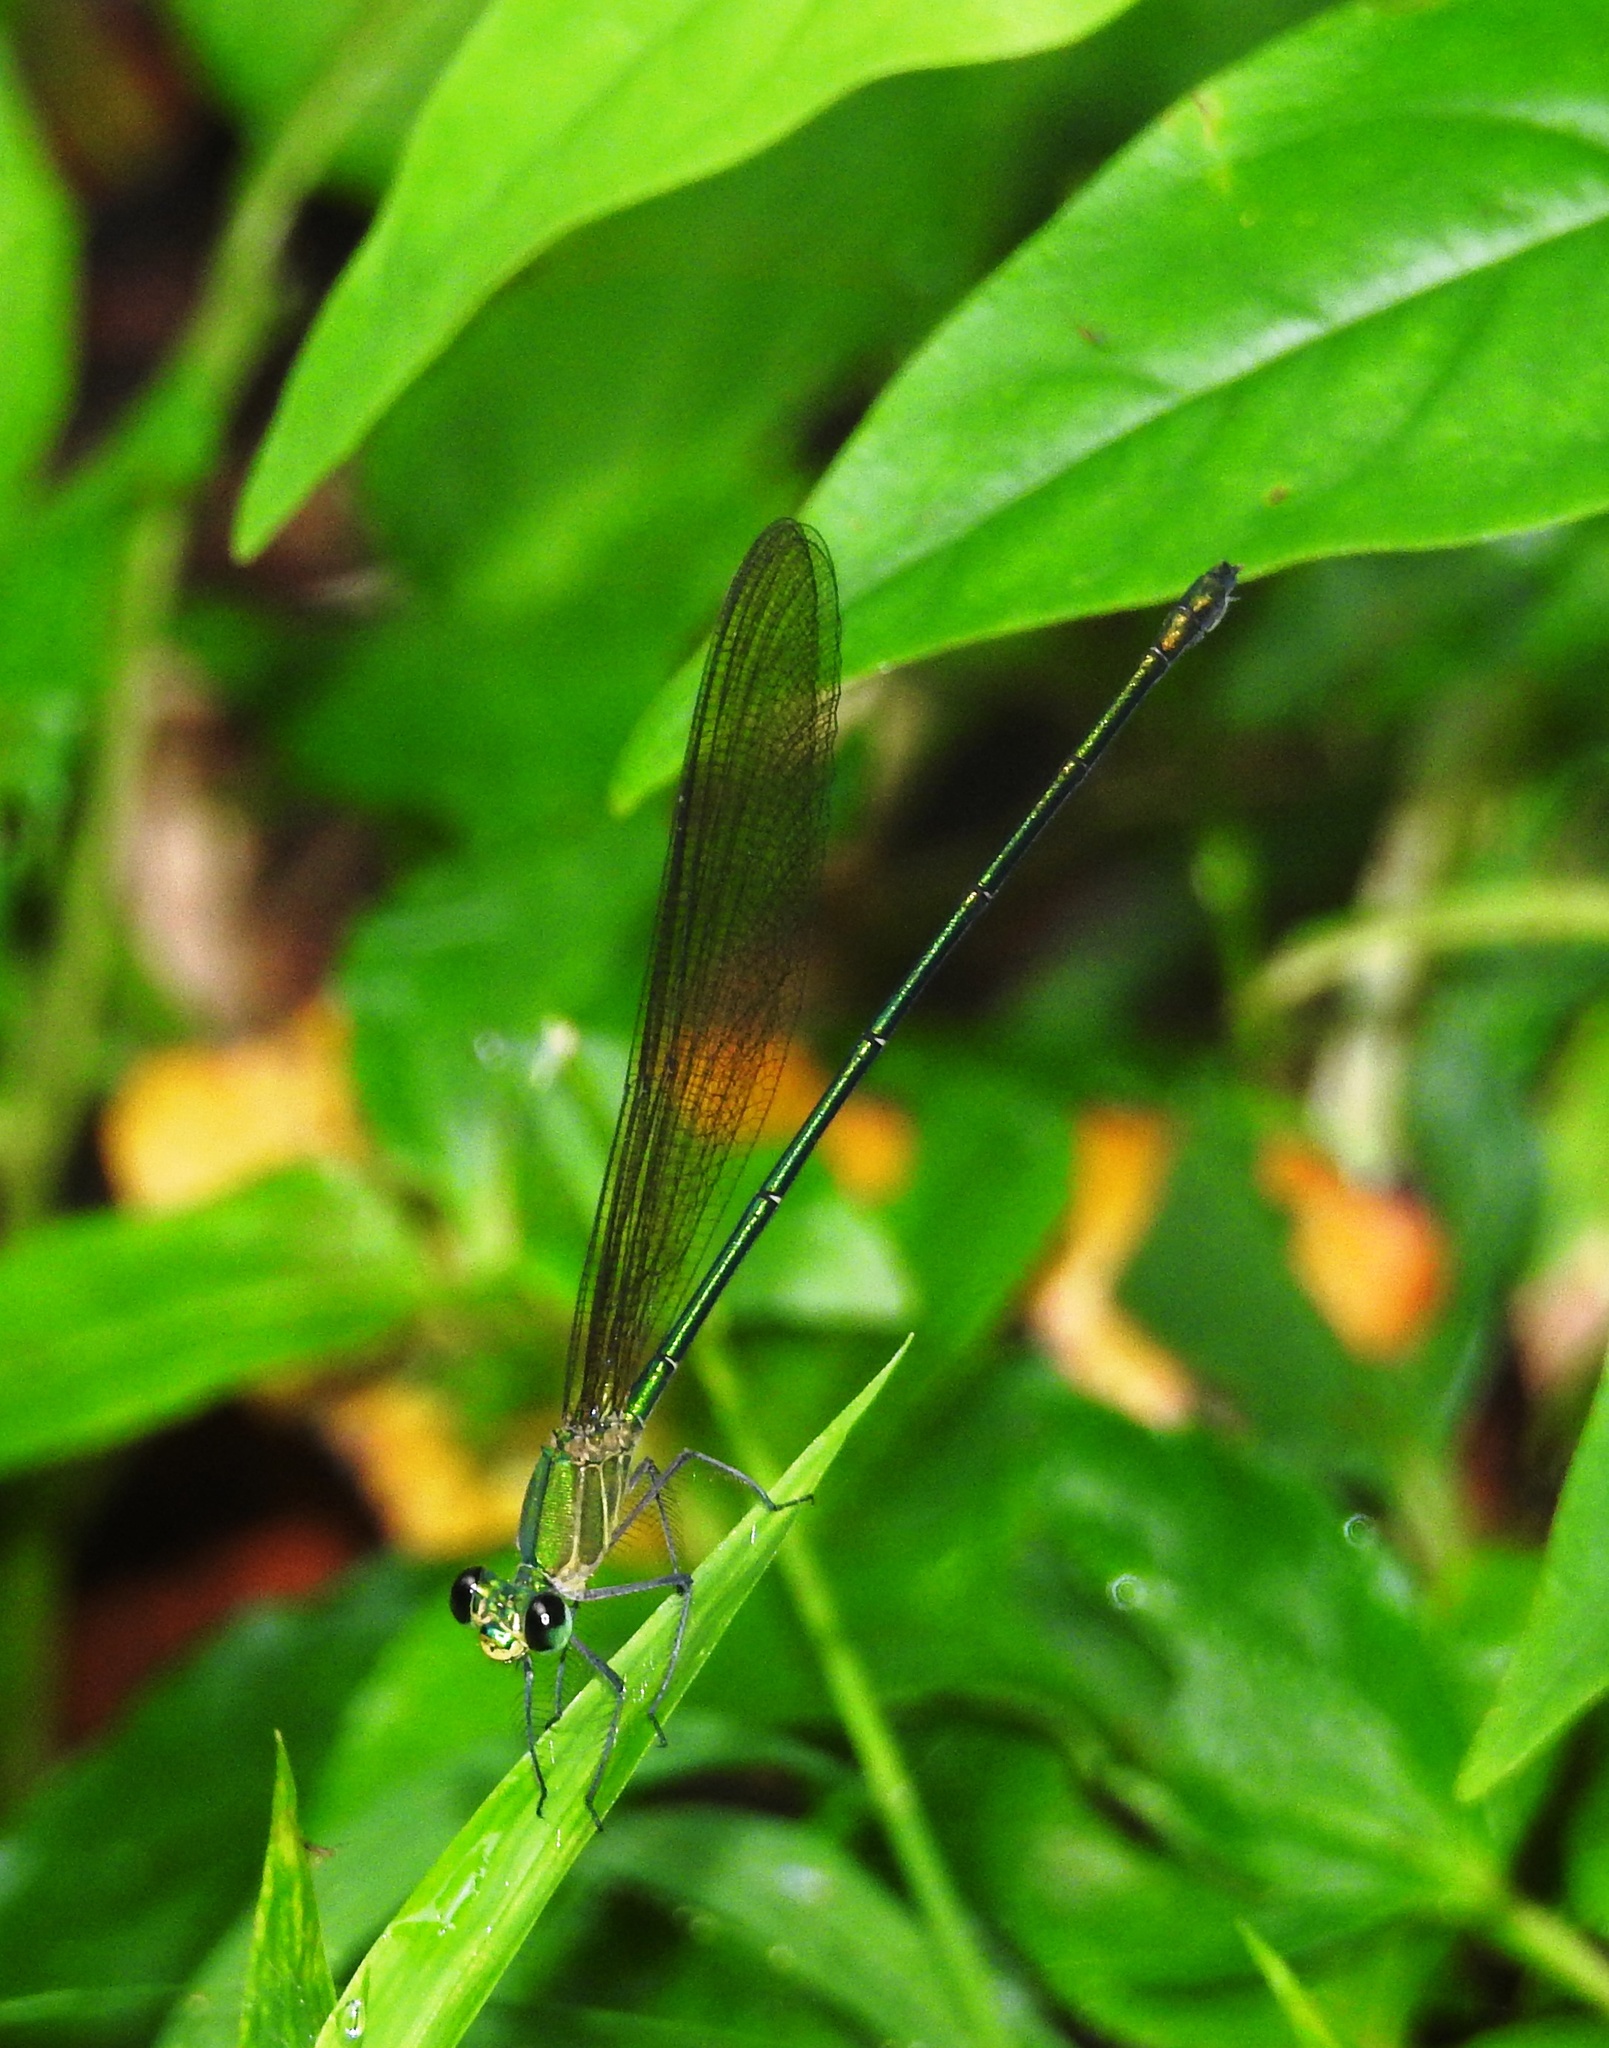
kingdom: Animalia
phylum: Arthropoda
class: Insecta
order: Odonata
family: Calopterygidae
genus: Vestalis
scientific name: Vestalis gracilis
